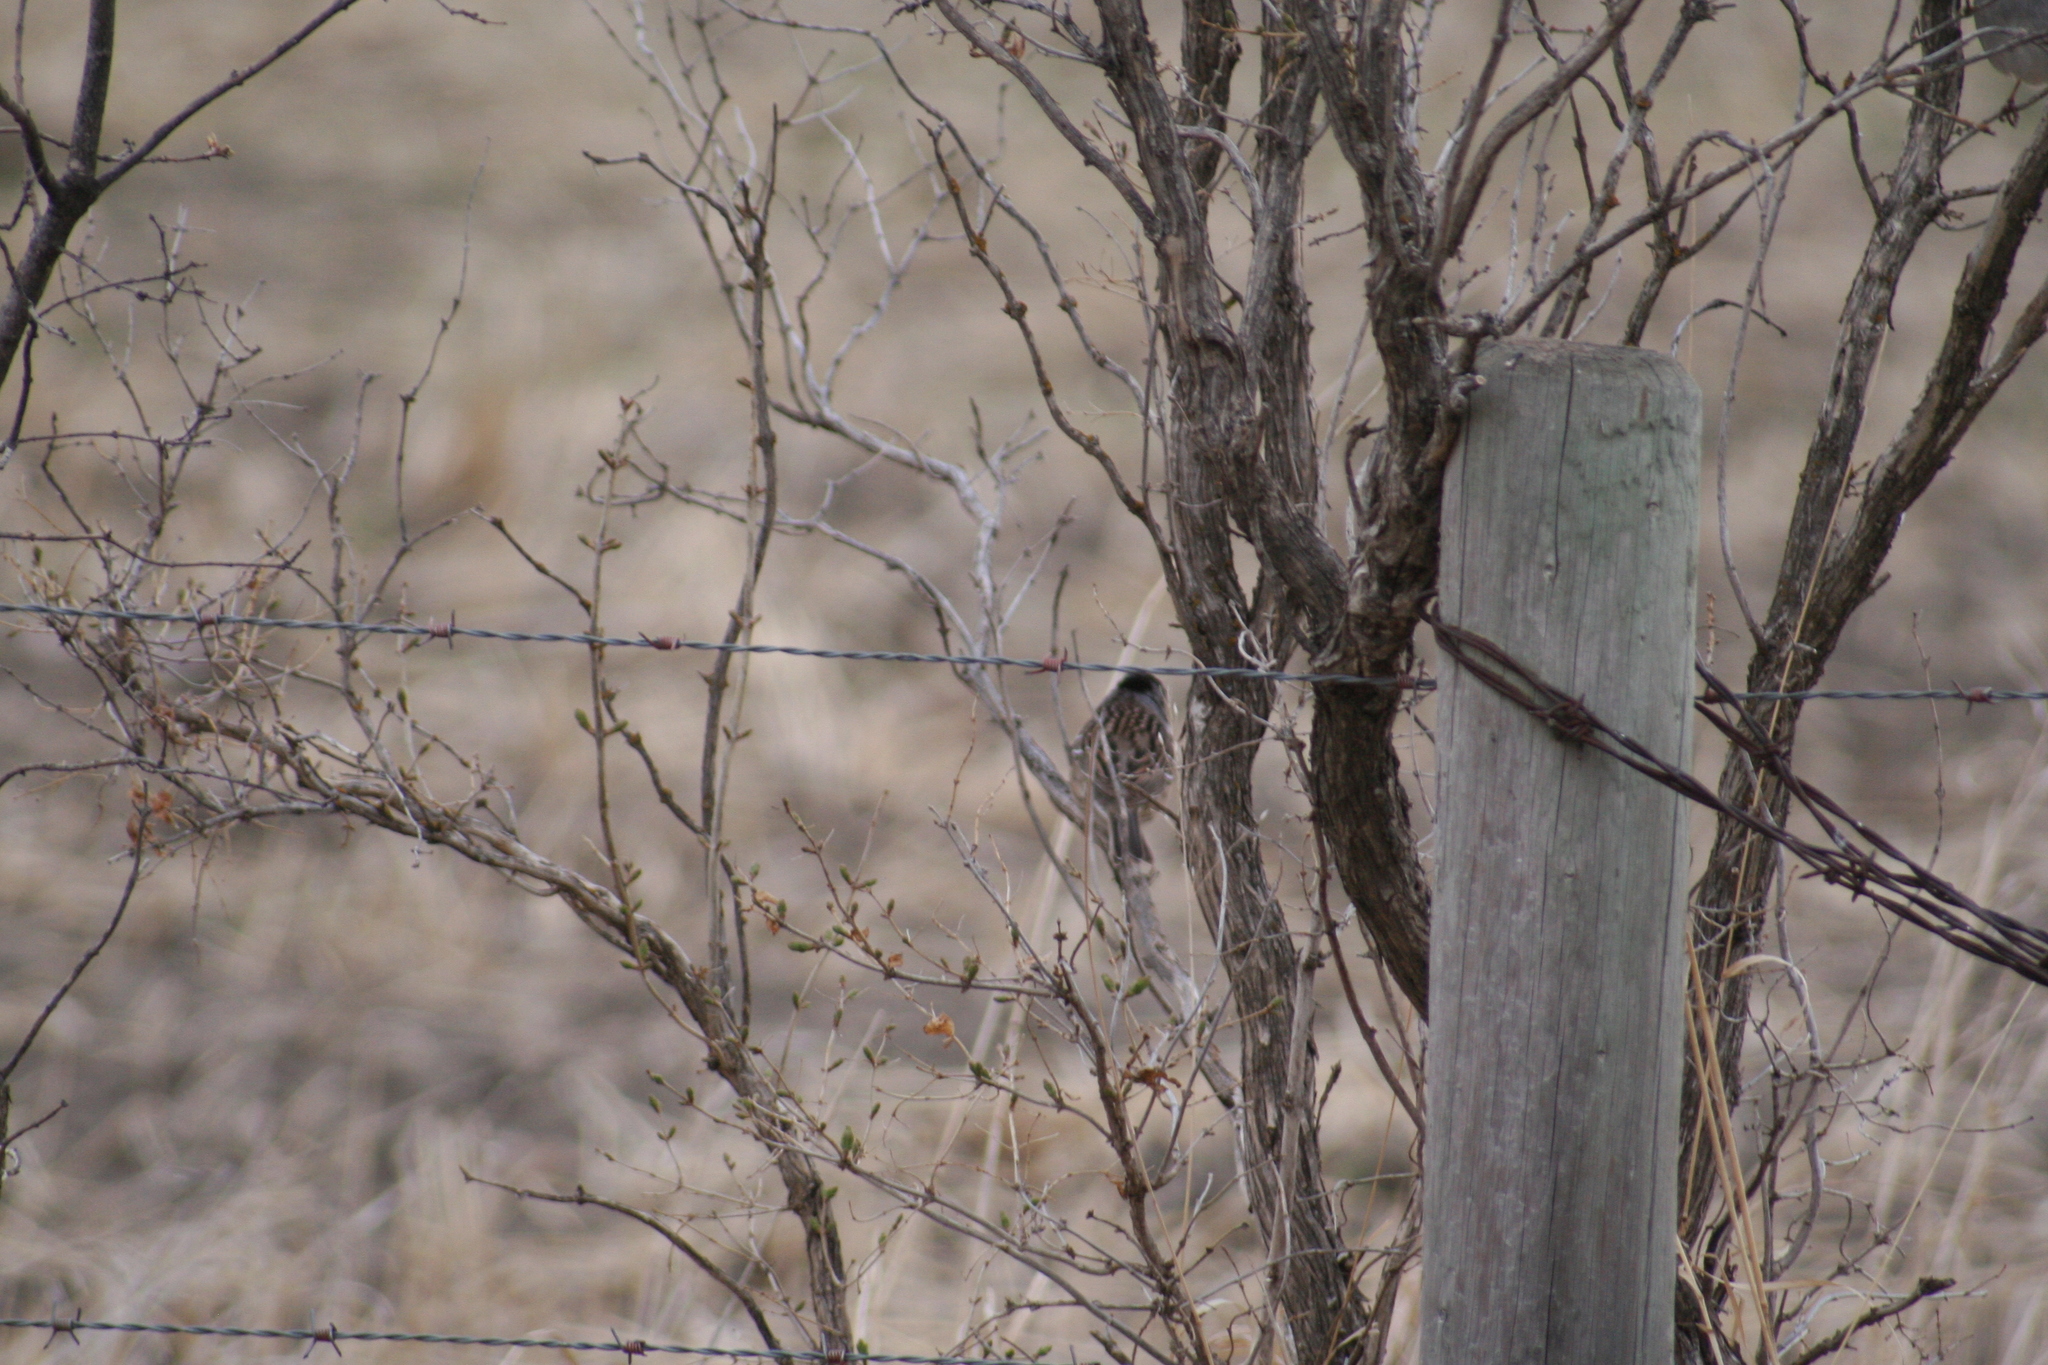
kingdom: Animalia
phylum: Chordata
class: Aves
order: Passeriformes
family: Passerellidae
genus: Zonotrichia
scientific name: Zonotrichia querula
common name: Harris's sparrow
